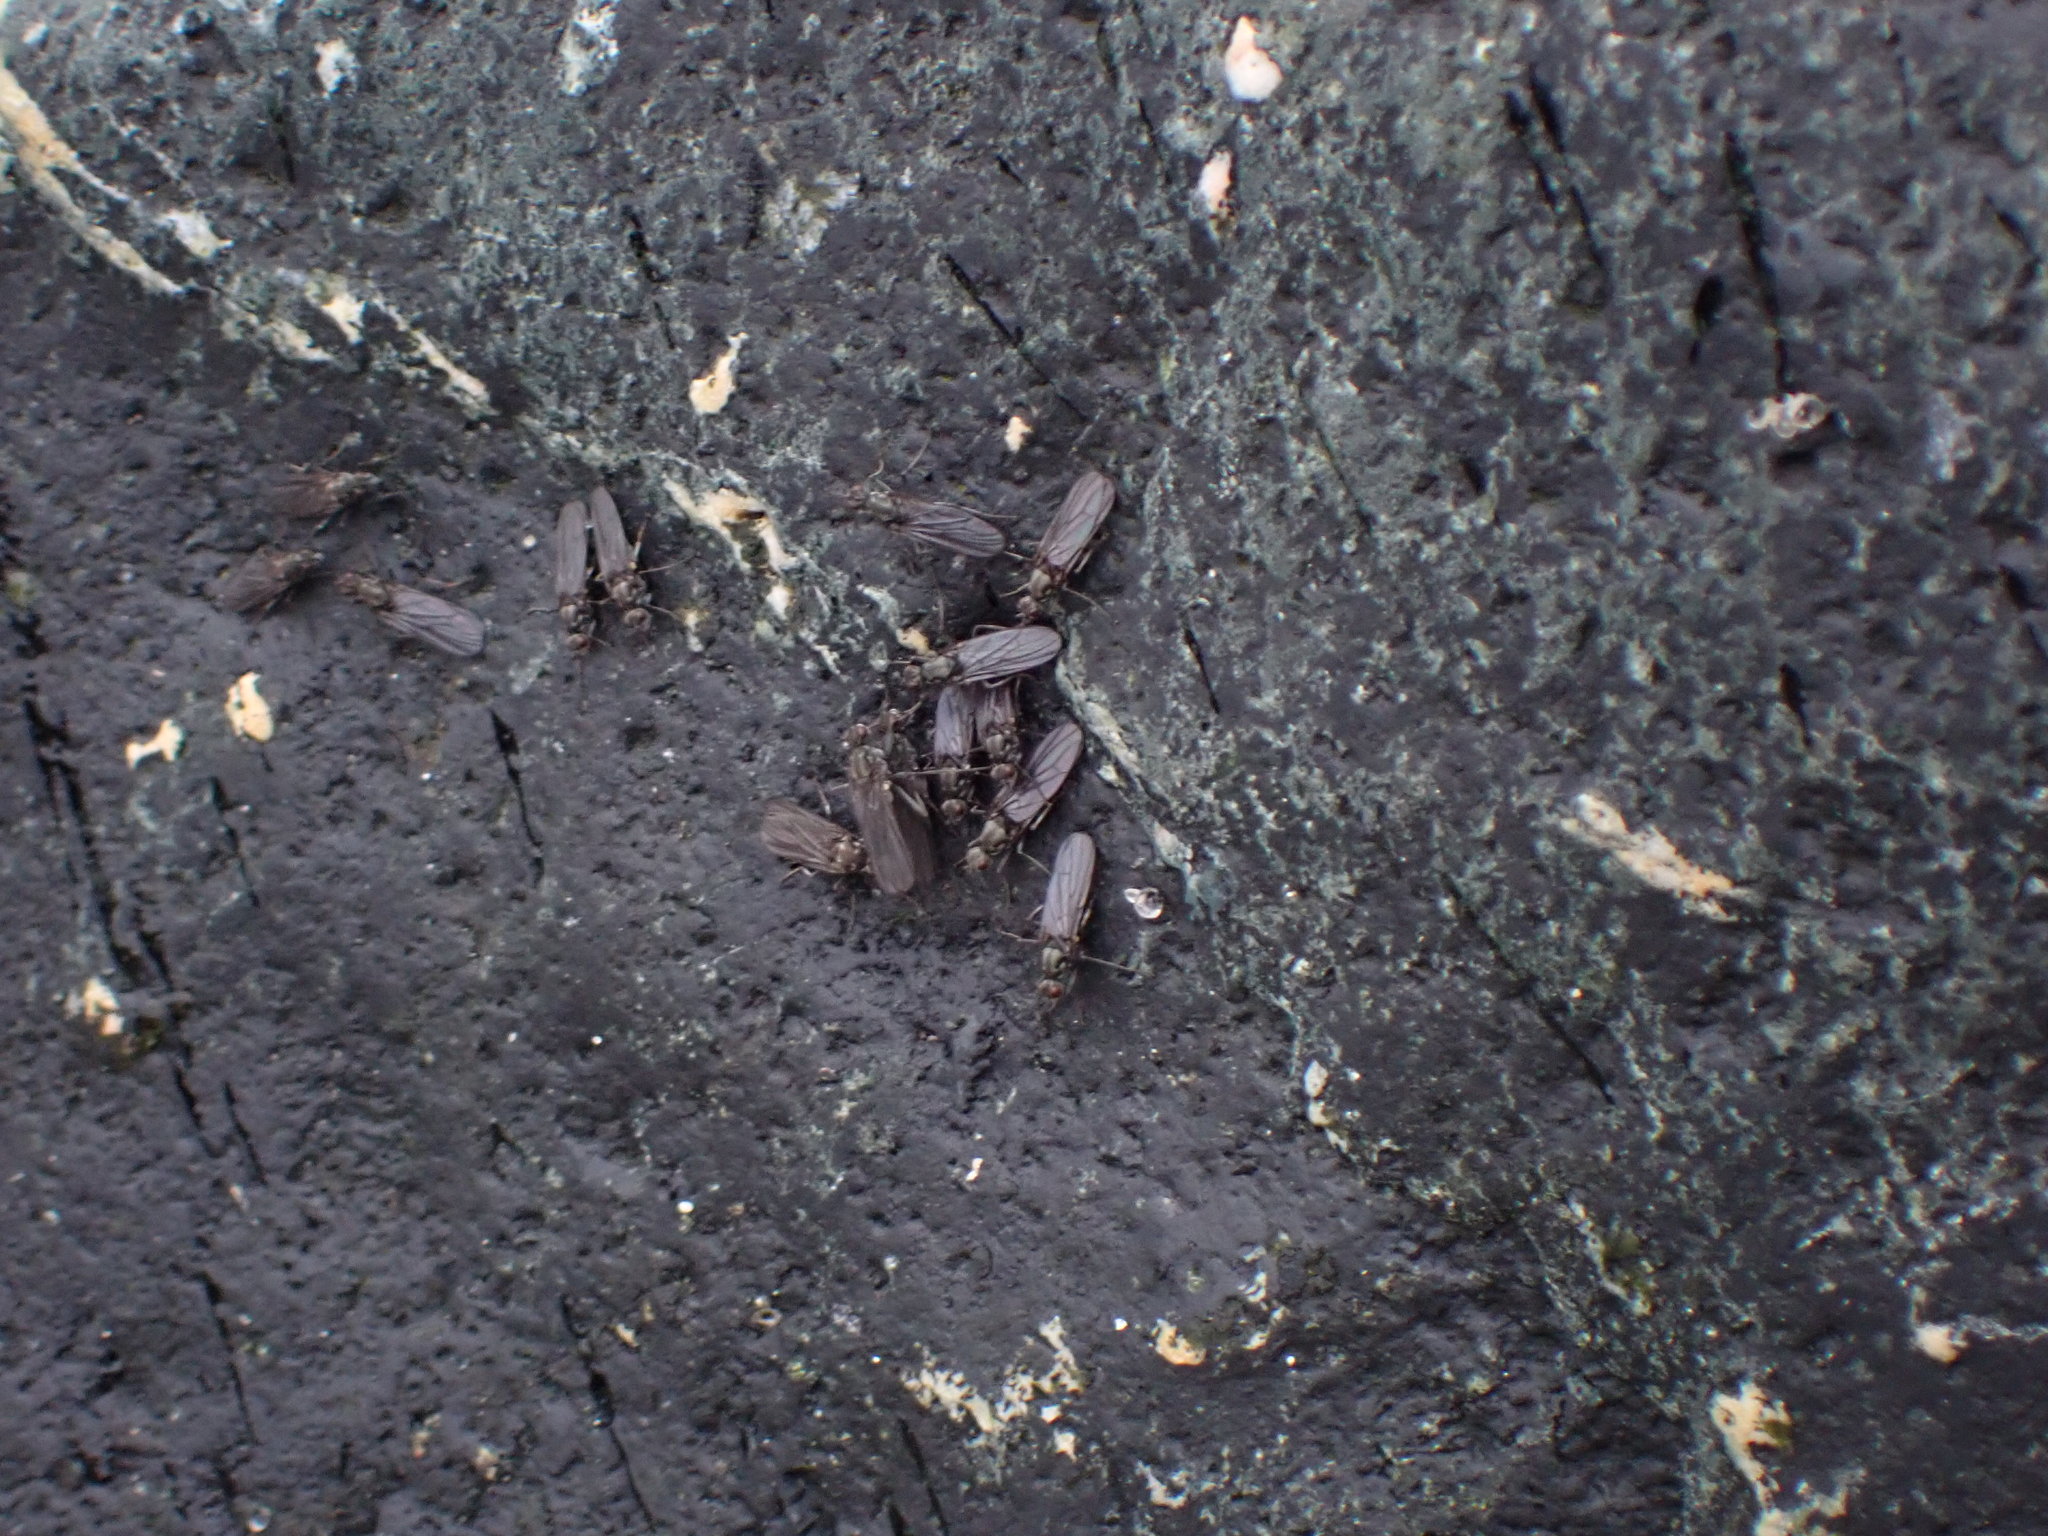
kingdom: Animalia
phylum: Arthropoda
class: Insecta
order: Diptera
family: Dryomyzidae
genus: Oedoparena
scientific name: Oedoparena glauca
